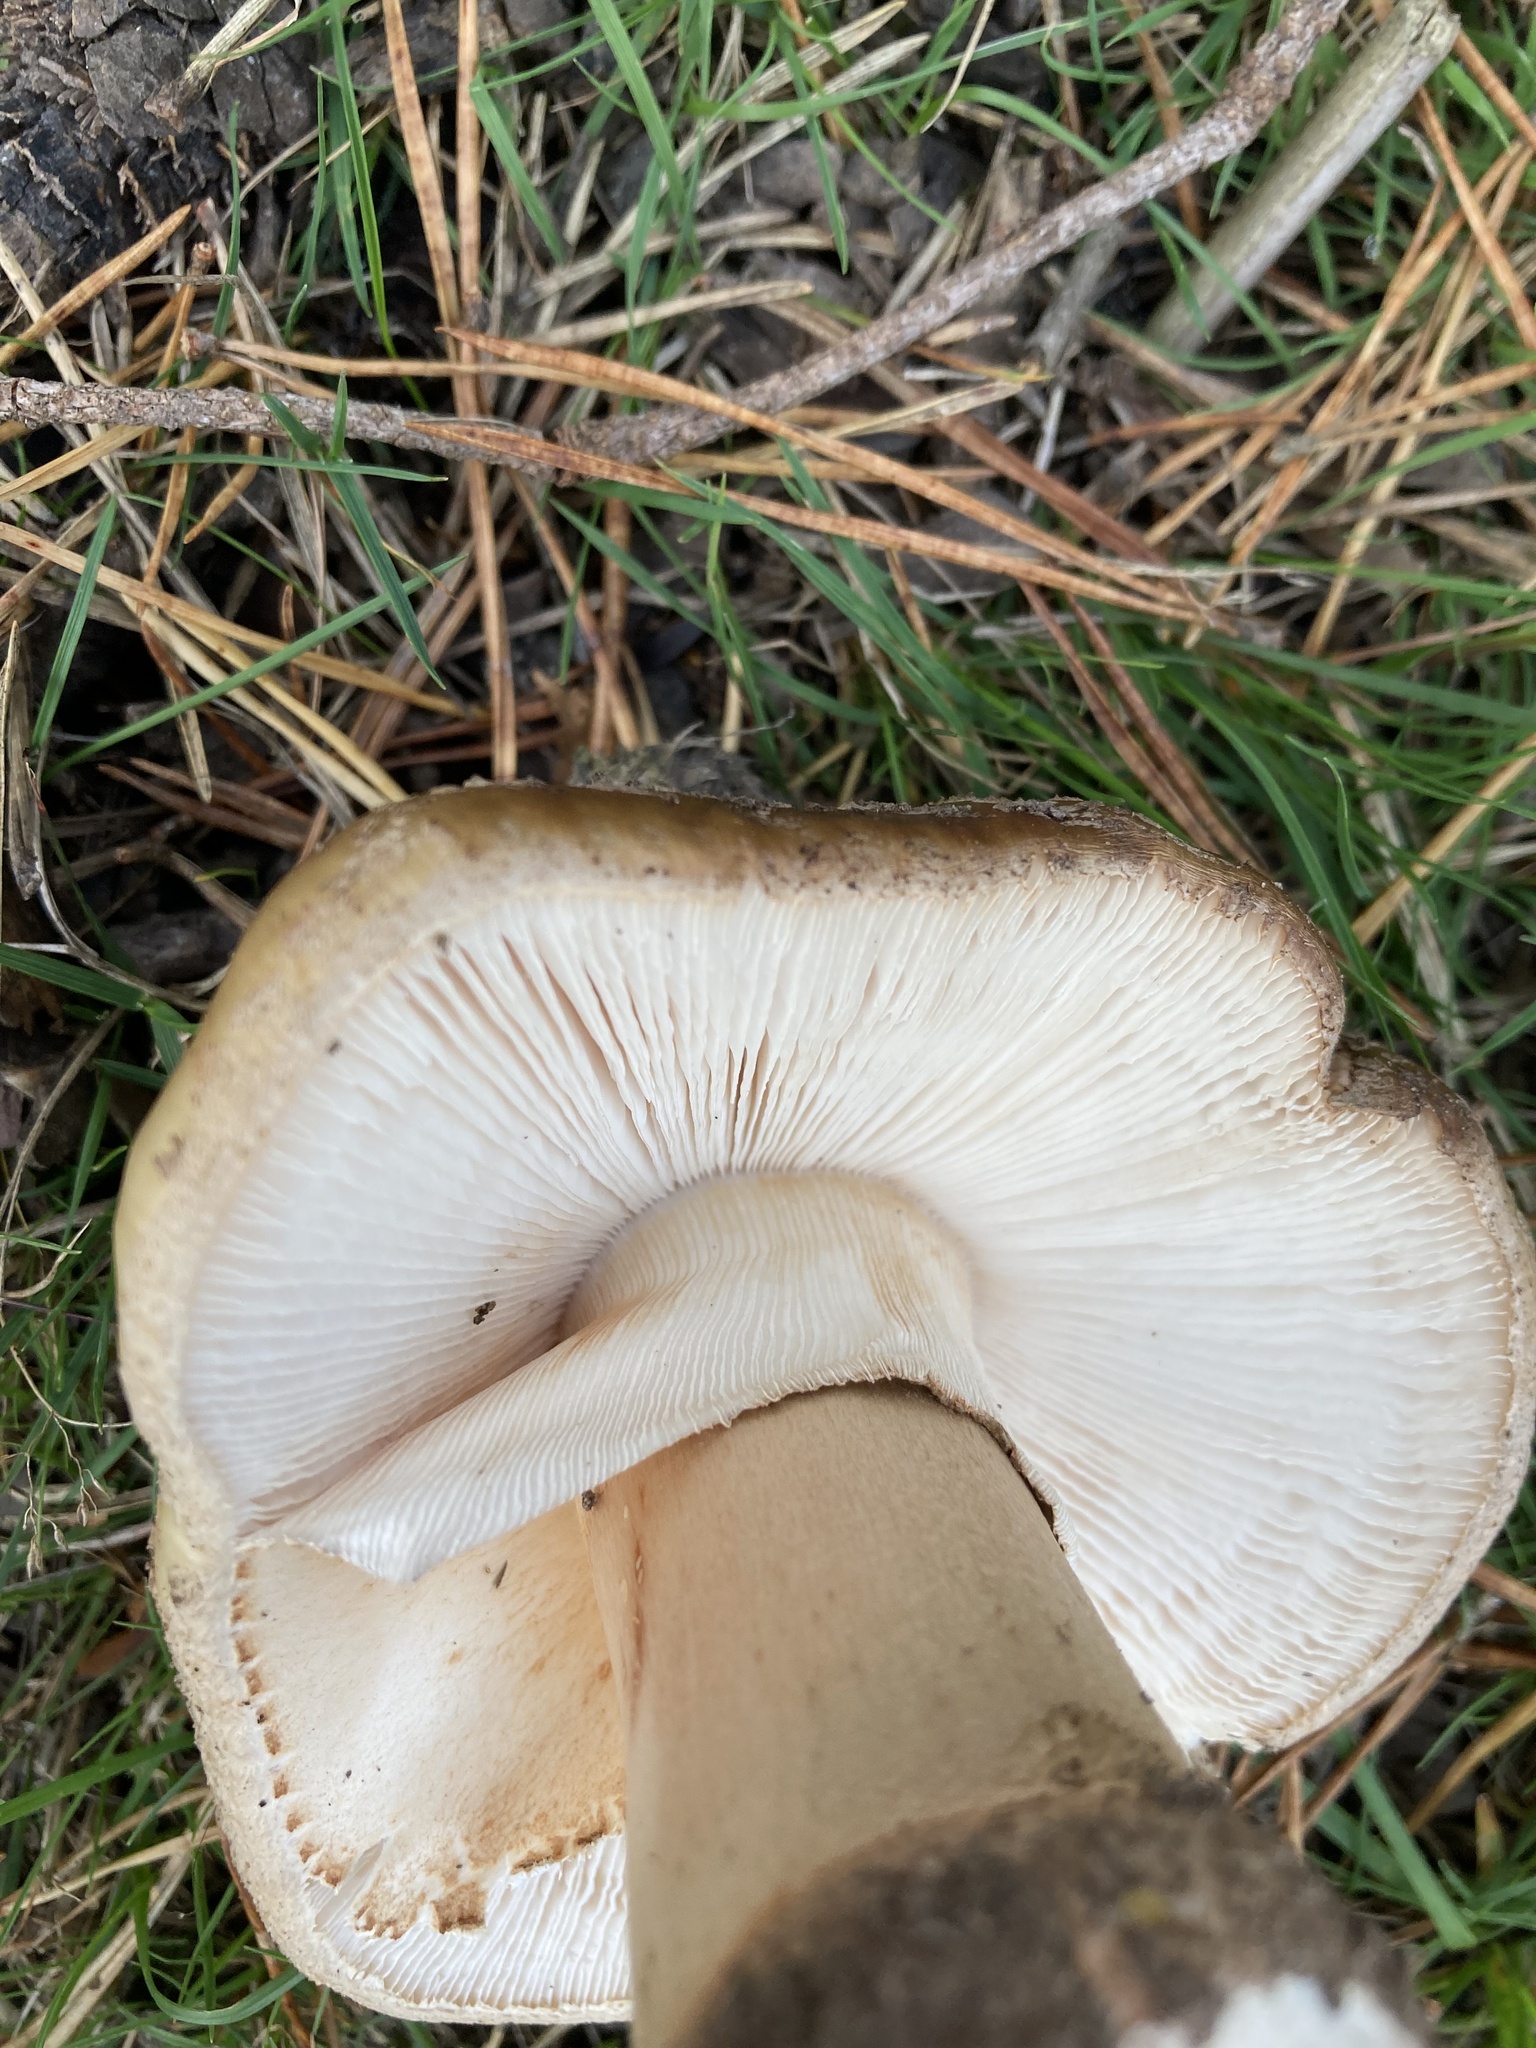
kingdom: Fungi
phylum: Basidiomycota
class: Agaricomycetes
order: Agaricales
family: Amanitaceae
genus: Amanita
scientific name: Amanita rubescens
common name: Blusher
